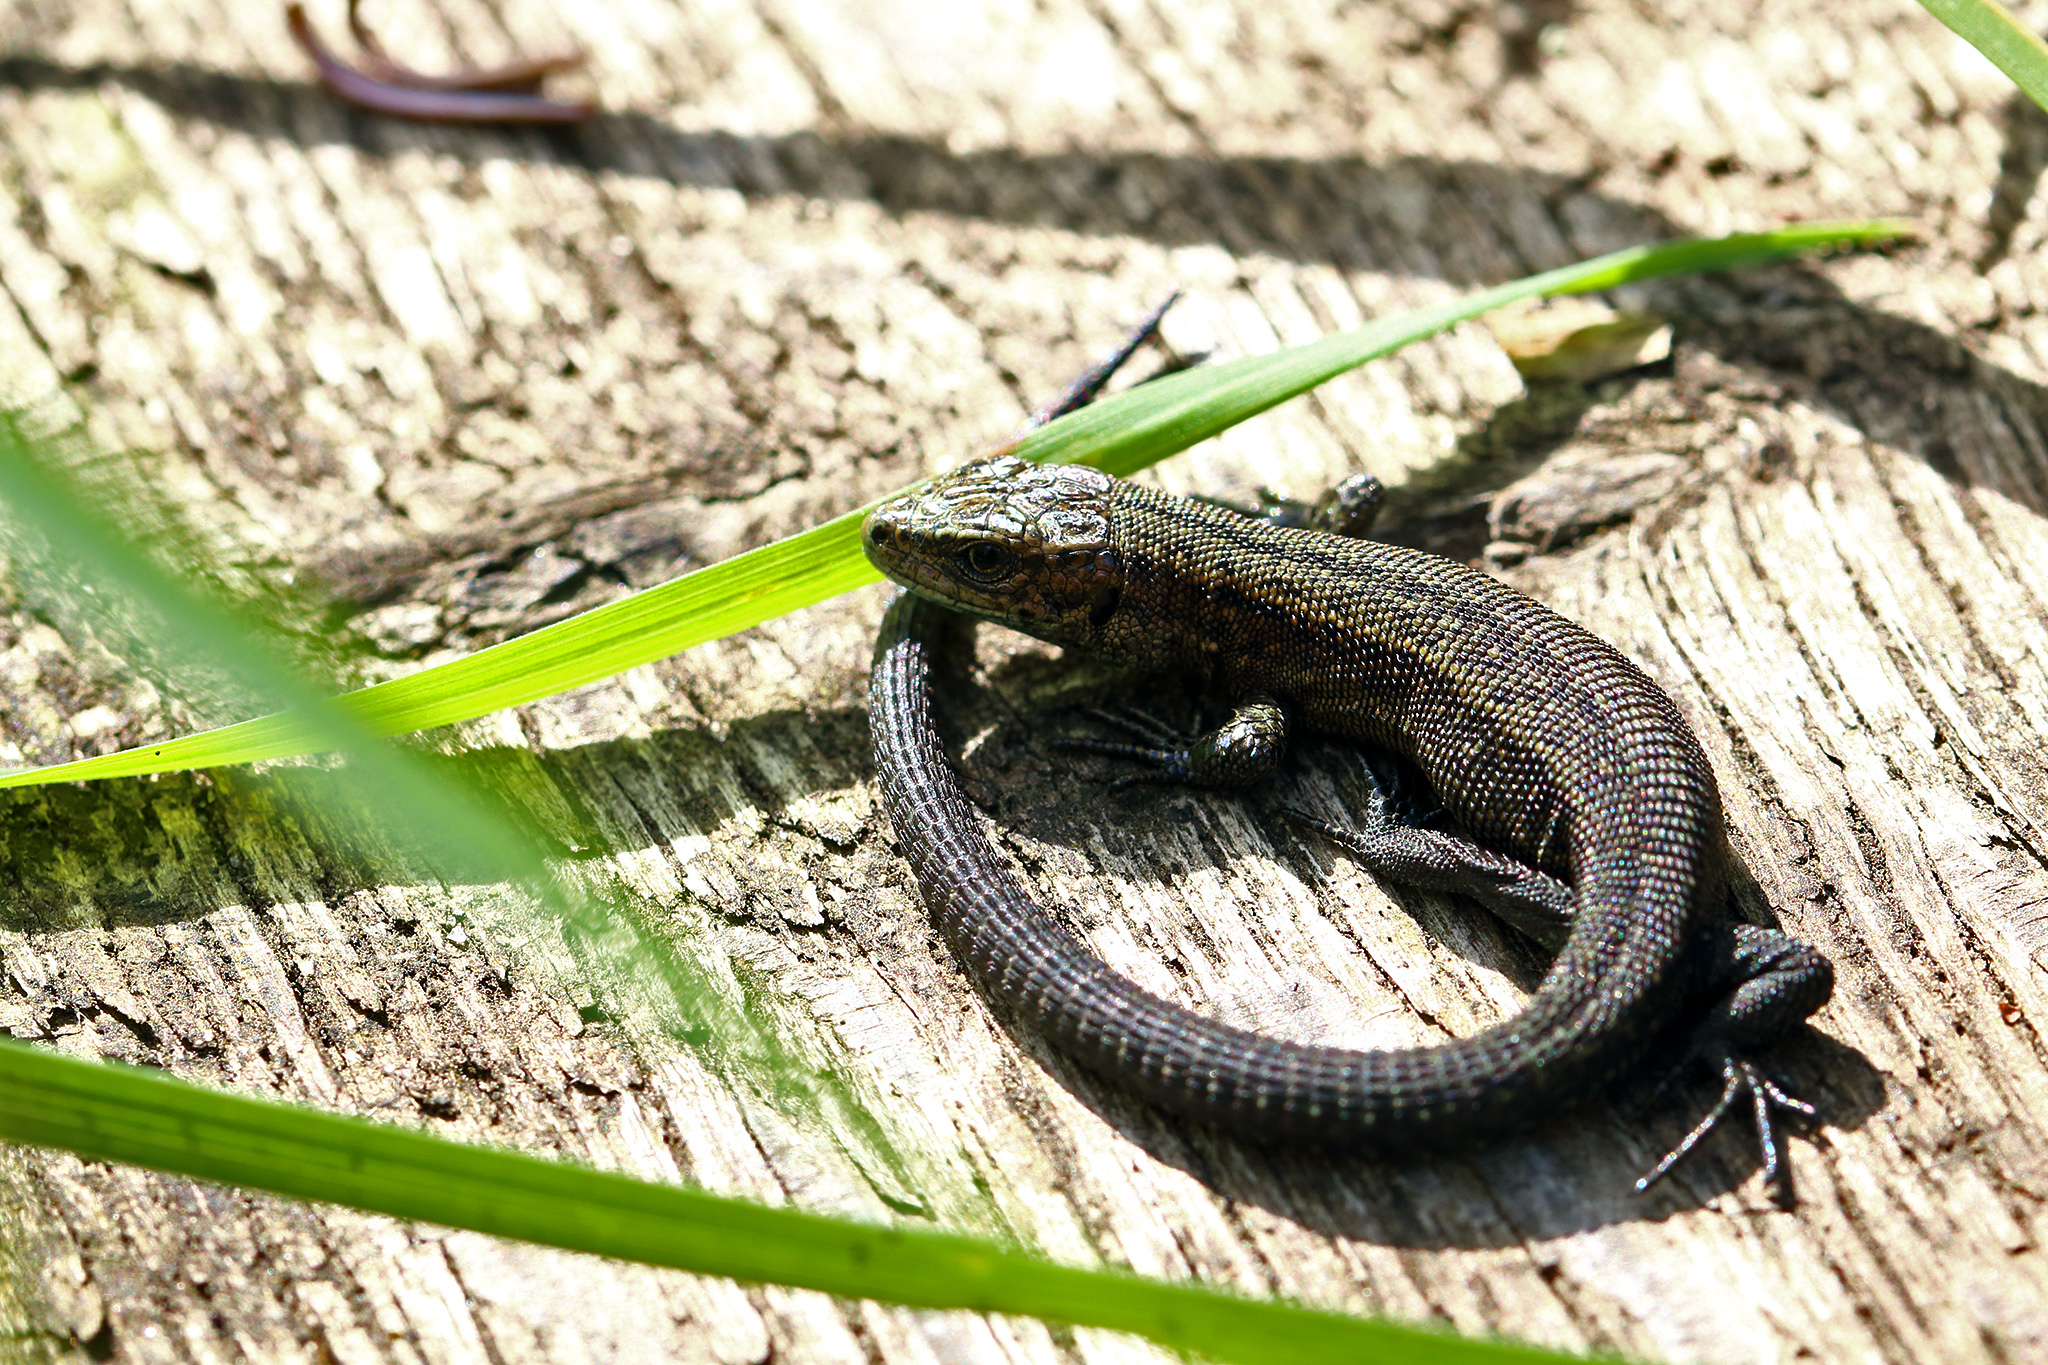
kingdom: Animalia
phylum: Chordata
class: Squamata
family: Lacertidae
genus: Zootoca
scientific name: Zootoca vivipara
